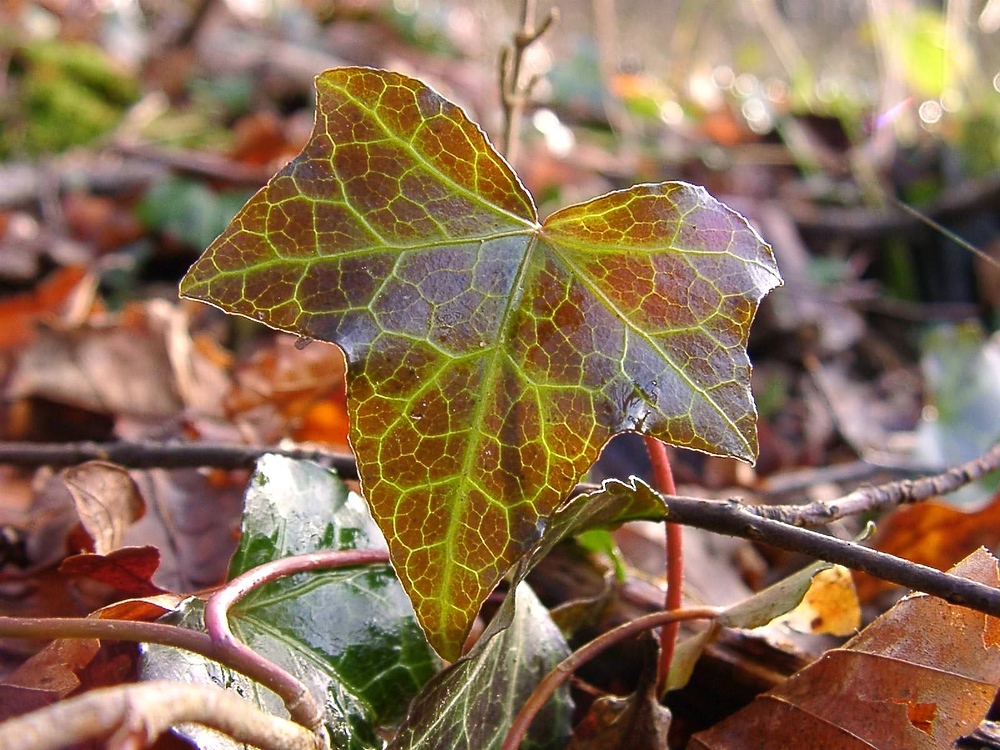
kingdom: Plantae
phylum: Tracheophyta
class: Magnoliopsida
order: Apiales
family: Araliaceae
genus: Hedera
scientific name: Hedera helix
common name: Ivy
